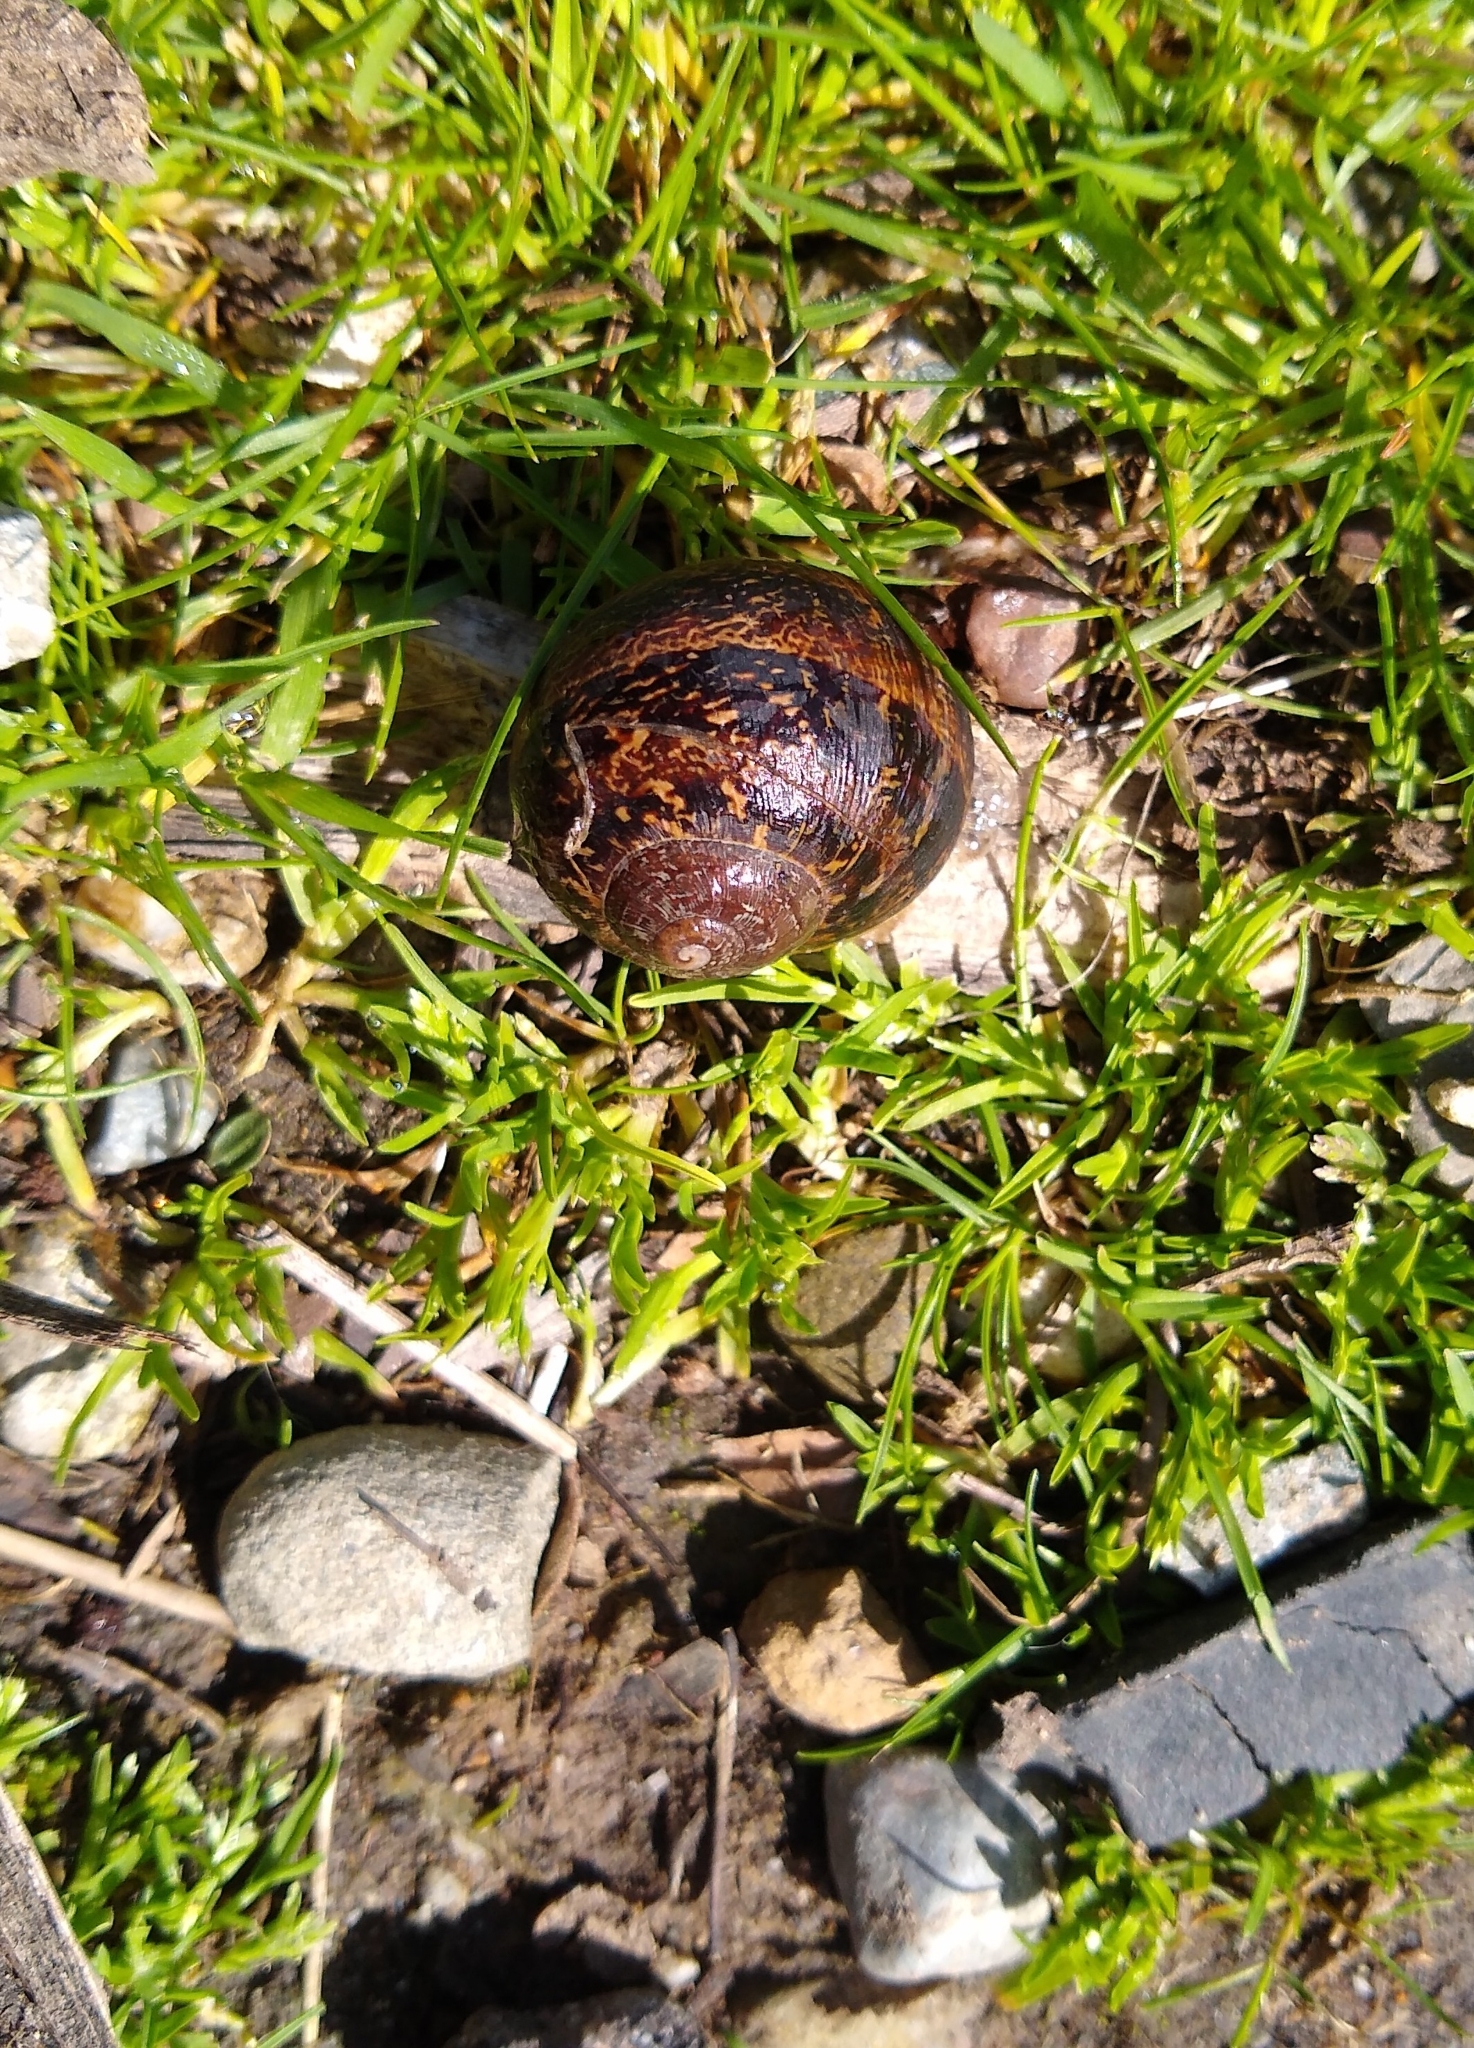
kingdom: Animalia
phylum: Mollusca
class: Gastropoda
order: Stylommatophora
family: Helicidae
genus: Cornu
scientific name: Cornu aspersum
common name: Brown garden snail
